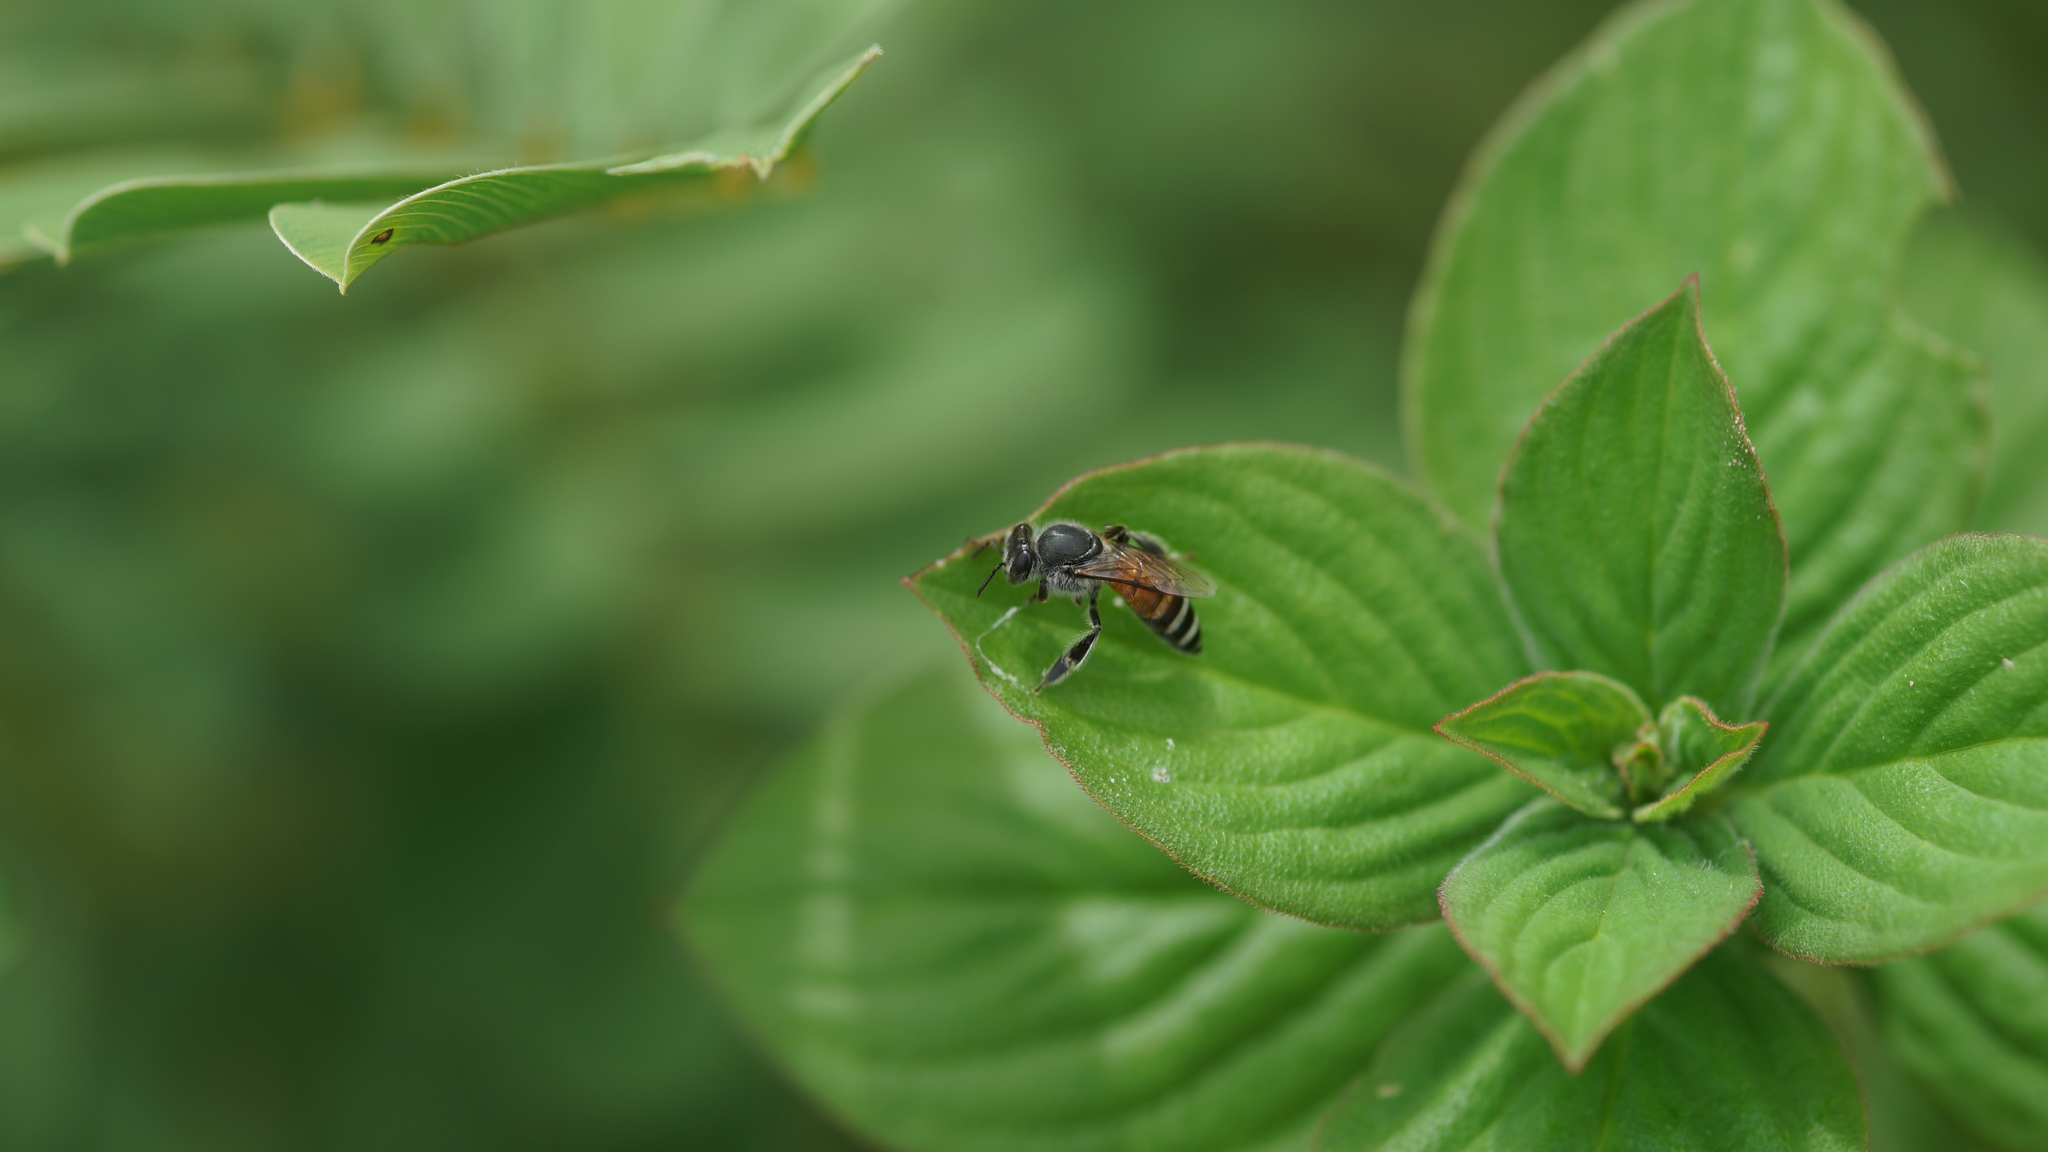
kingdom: Animalia
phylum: Arthropoda
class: Insecta
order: Hymenoptera
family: Apidae
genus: Apis
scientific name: Apis florea
